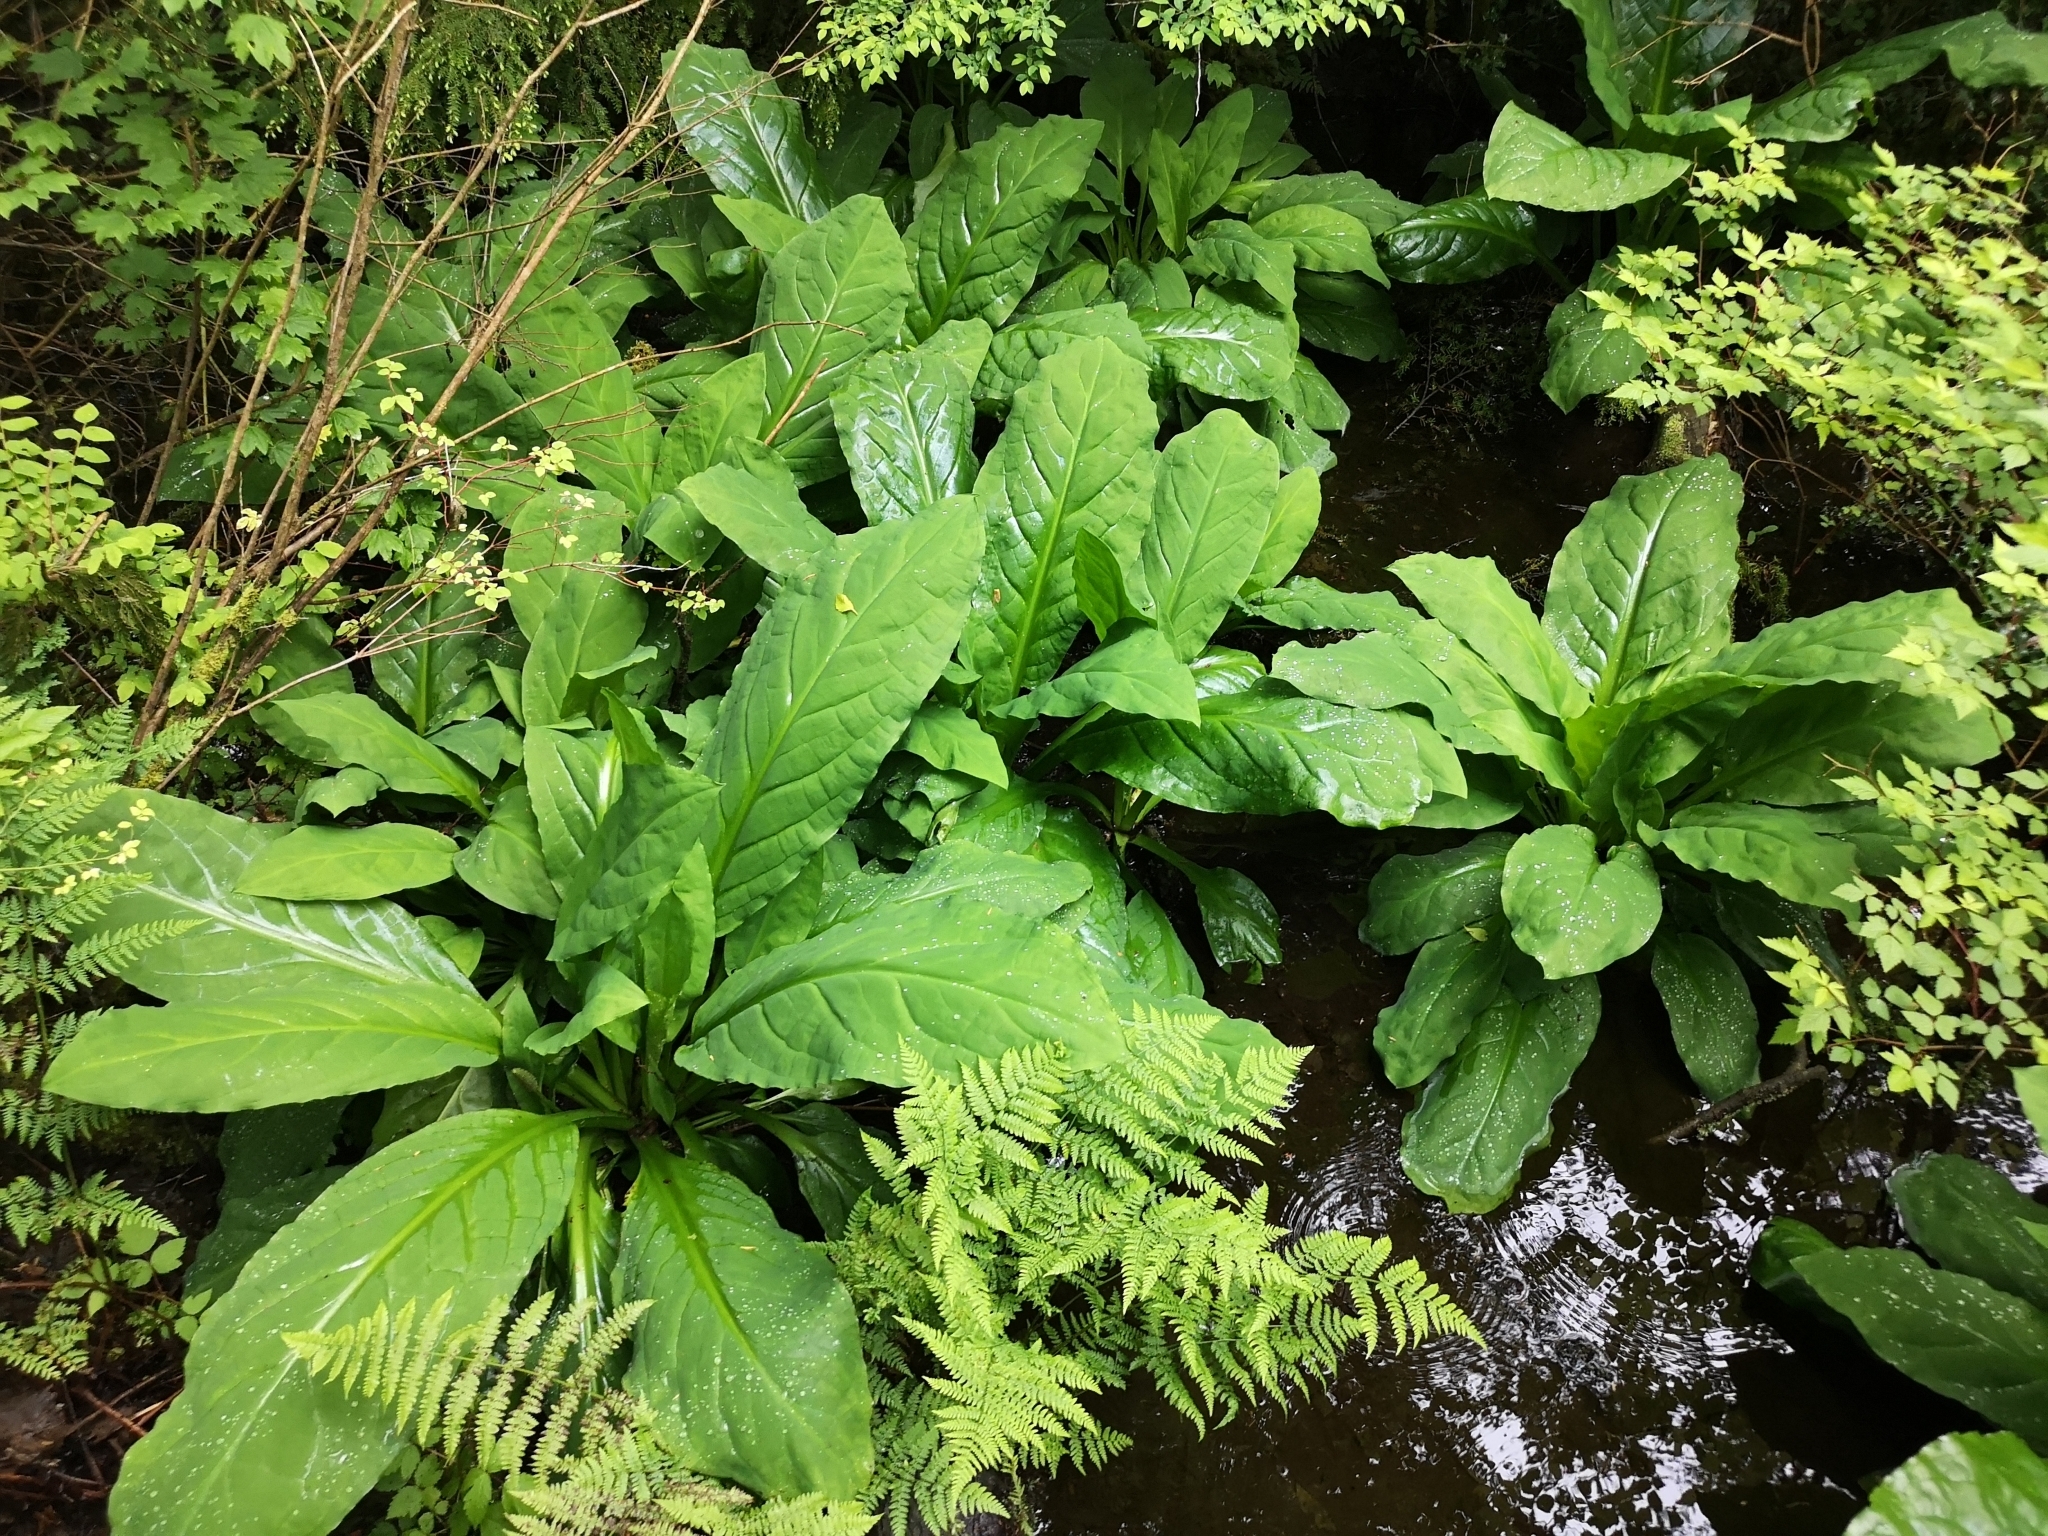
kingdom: Plantae
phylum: Tracheophyta
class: Liliopsida
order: Alismatales
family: Araceae
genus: Lysichiton
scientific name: Lysichiton americanus
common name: American skunk cabbage
